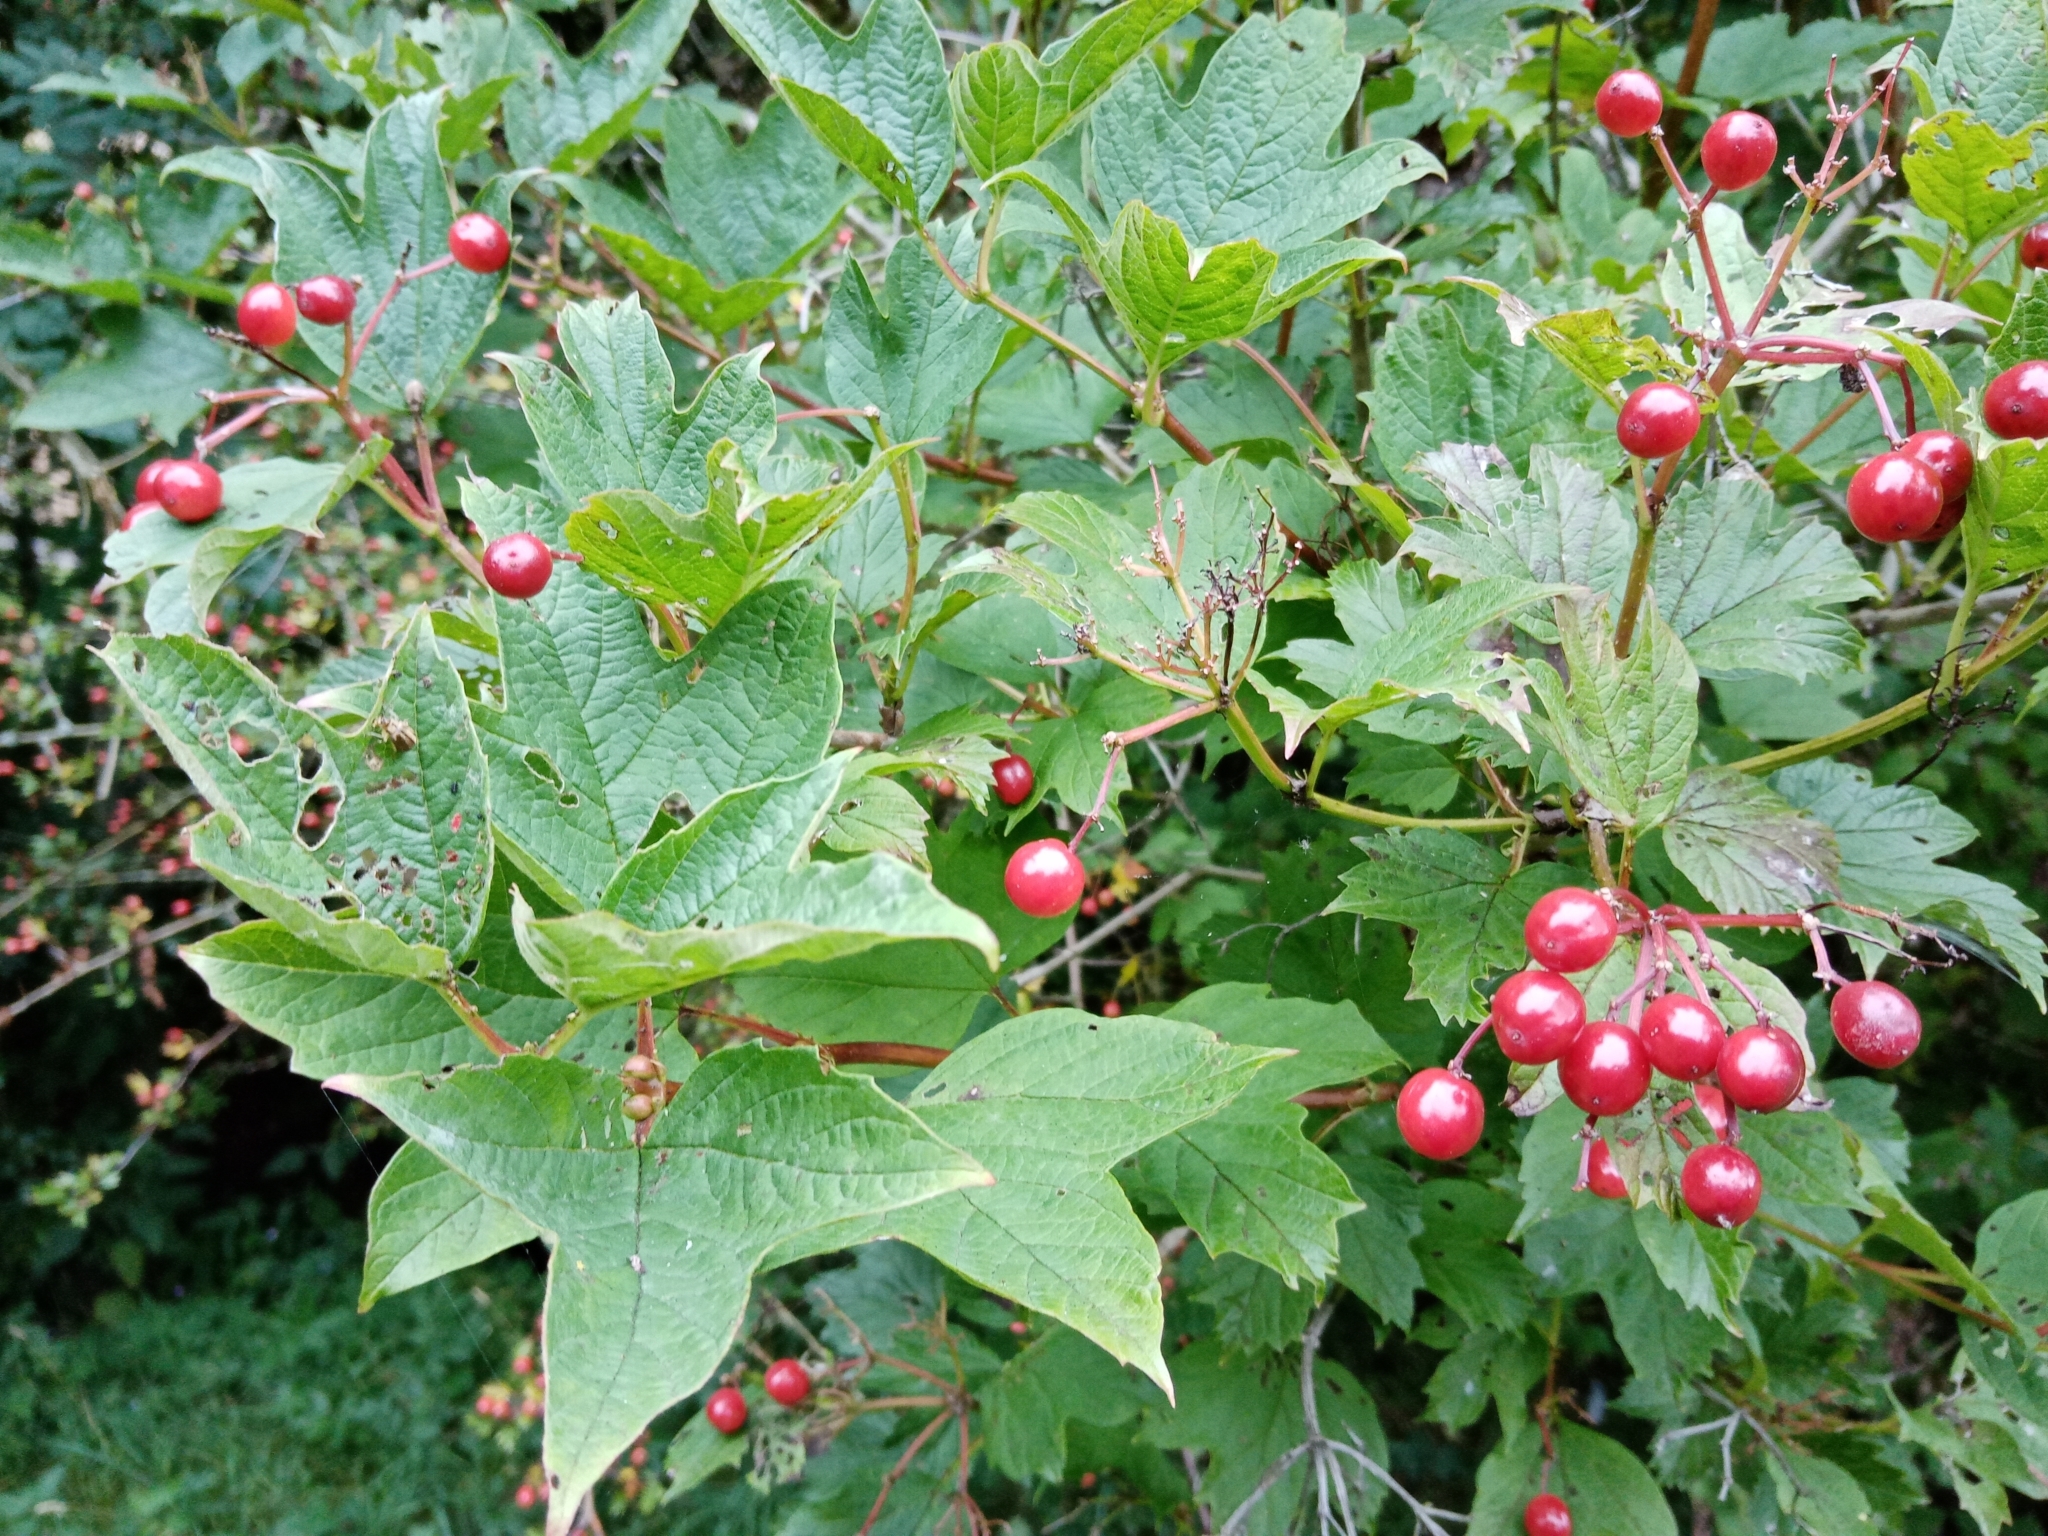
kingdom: Plantae
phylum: Tracheophyta
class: Magnoliopsida
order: Dipsacales
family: Viburnaceae
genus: Viburnum
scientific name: Viburnum opulus
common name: Guelder-rose
